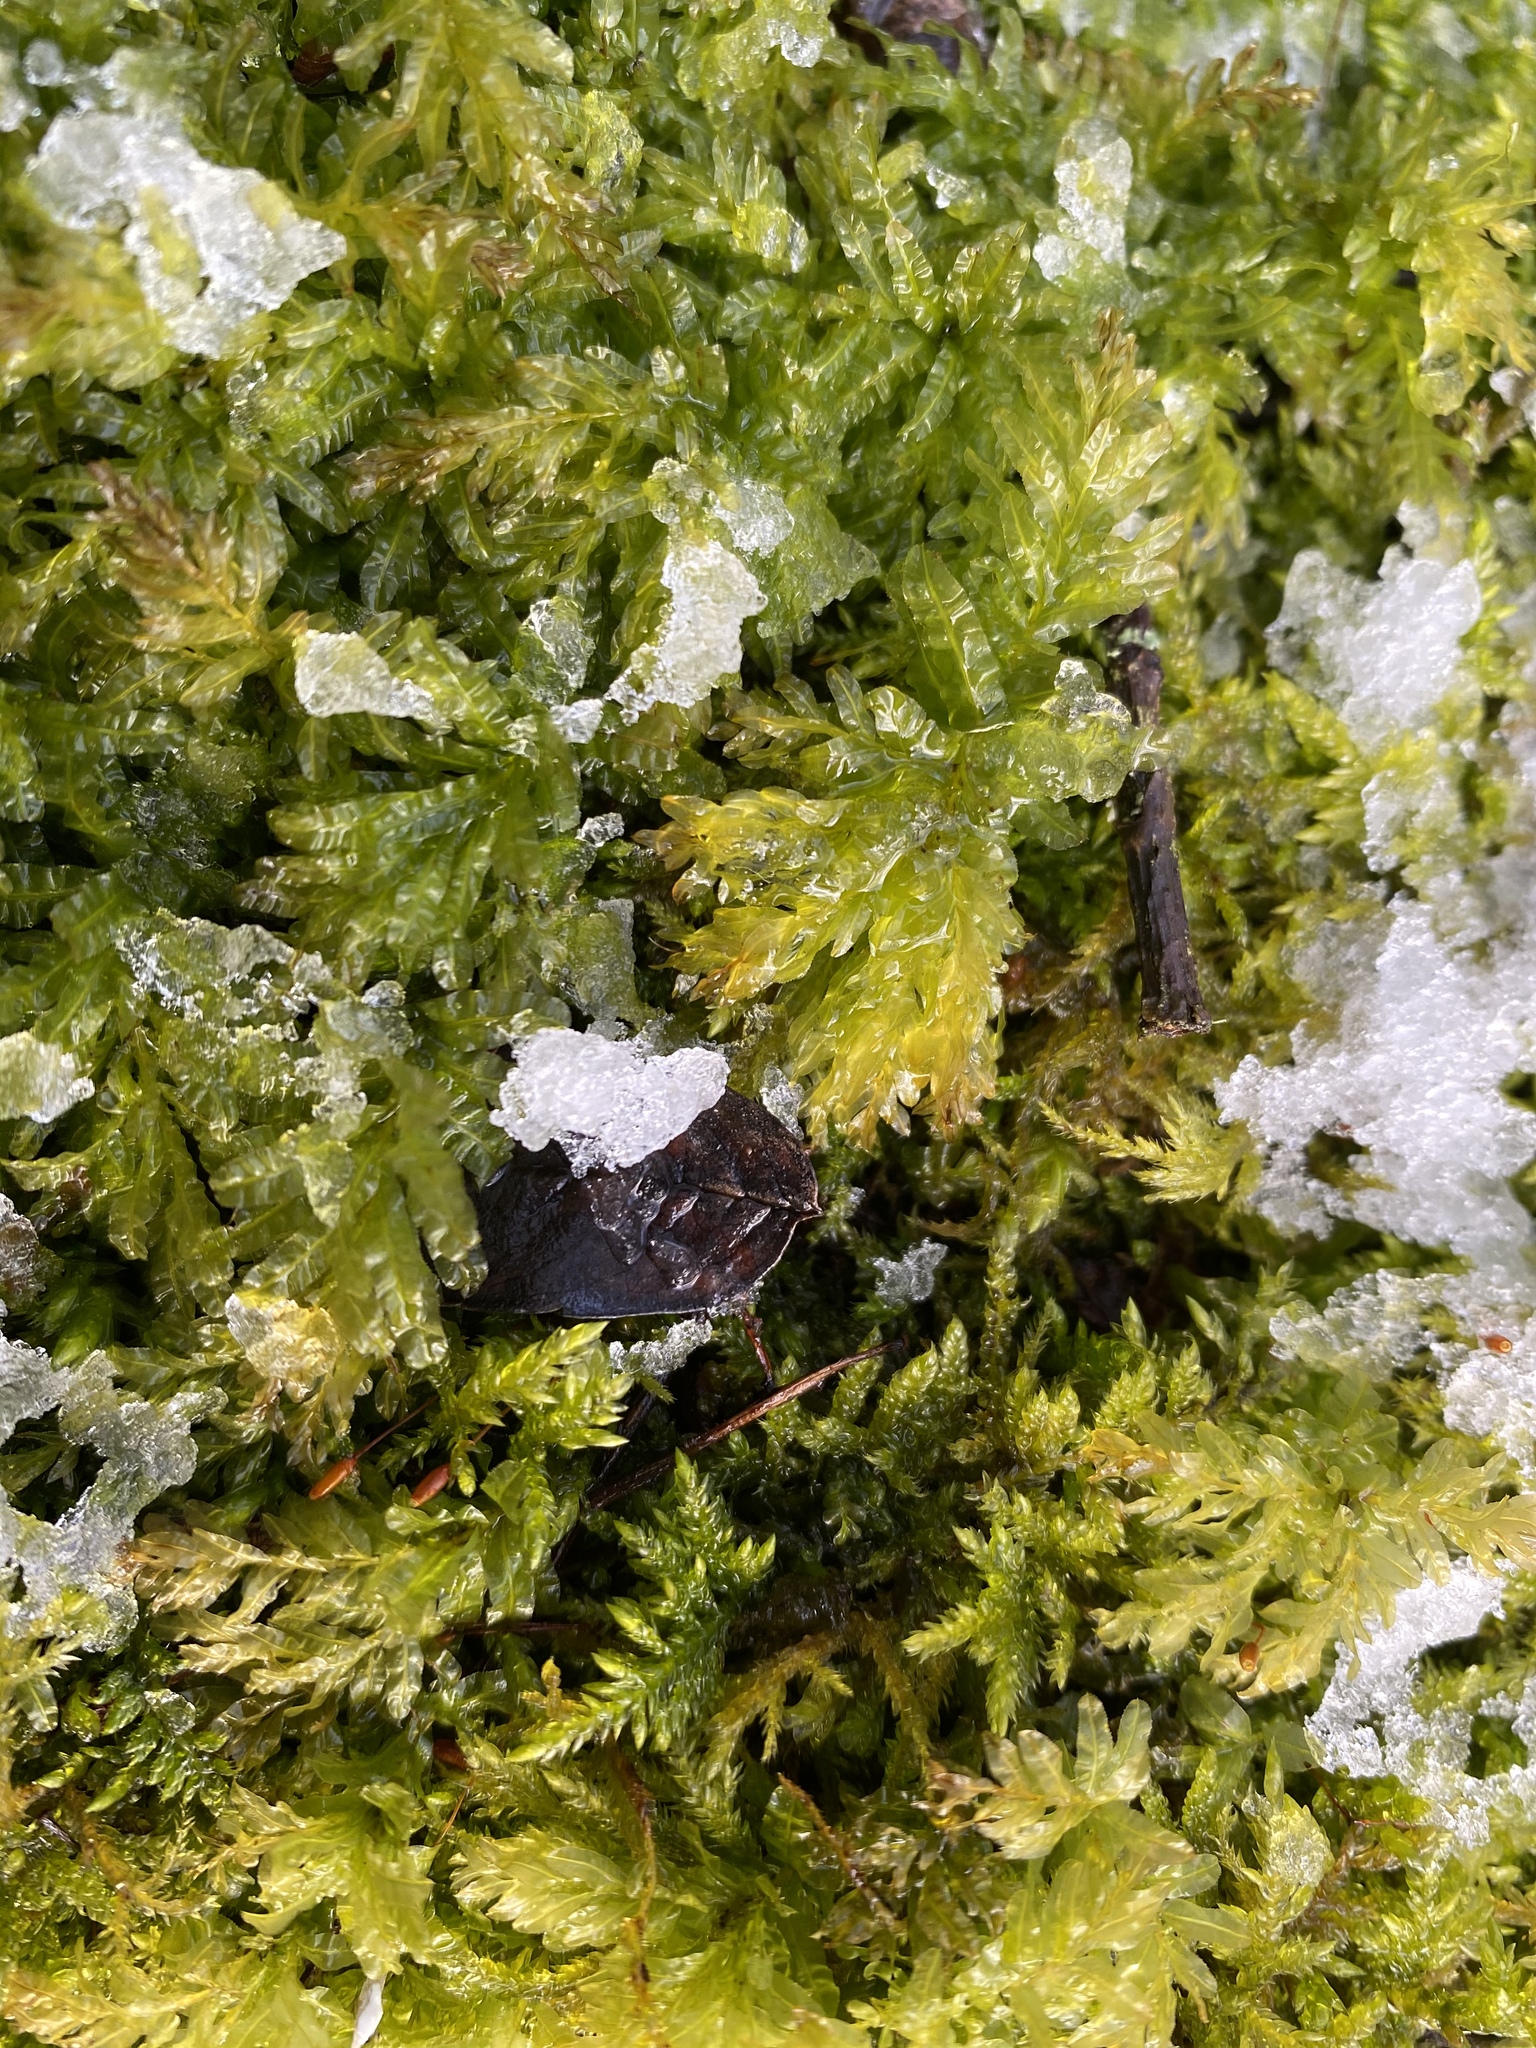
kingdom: Plantae
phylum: Bryophyta
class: Bryopsida
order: Bryales
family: Mniaceae
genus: Plagiomnium
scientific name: Plagiomnium undulatum
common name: Hart's-tongue thyme-moss
